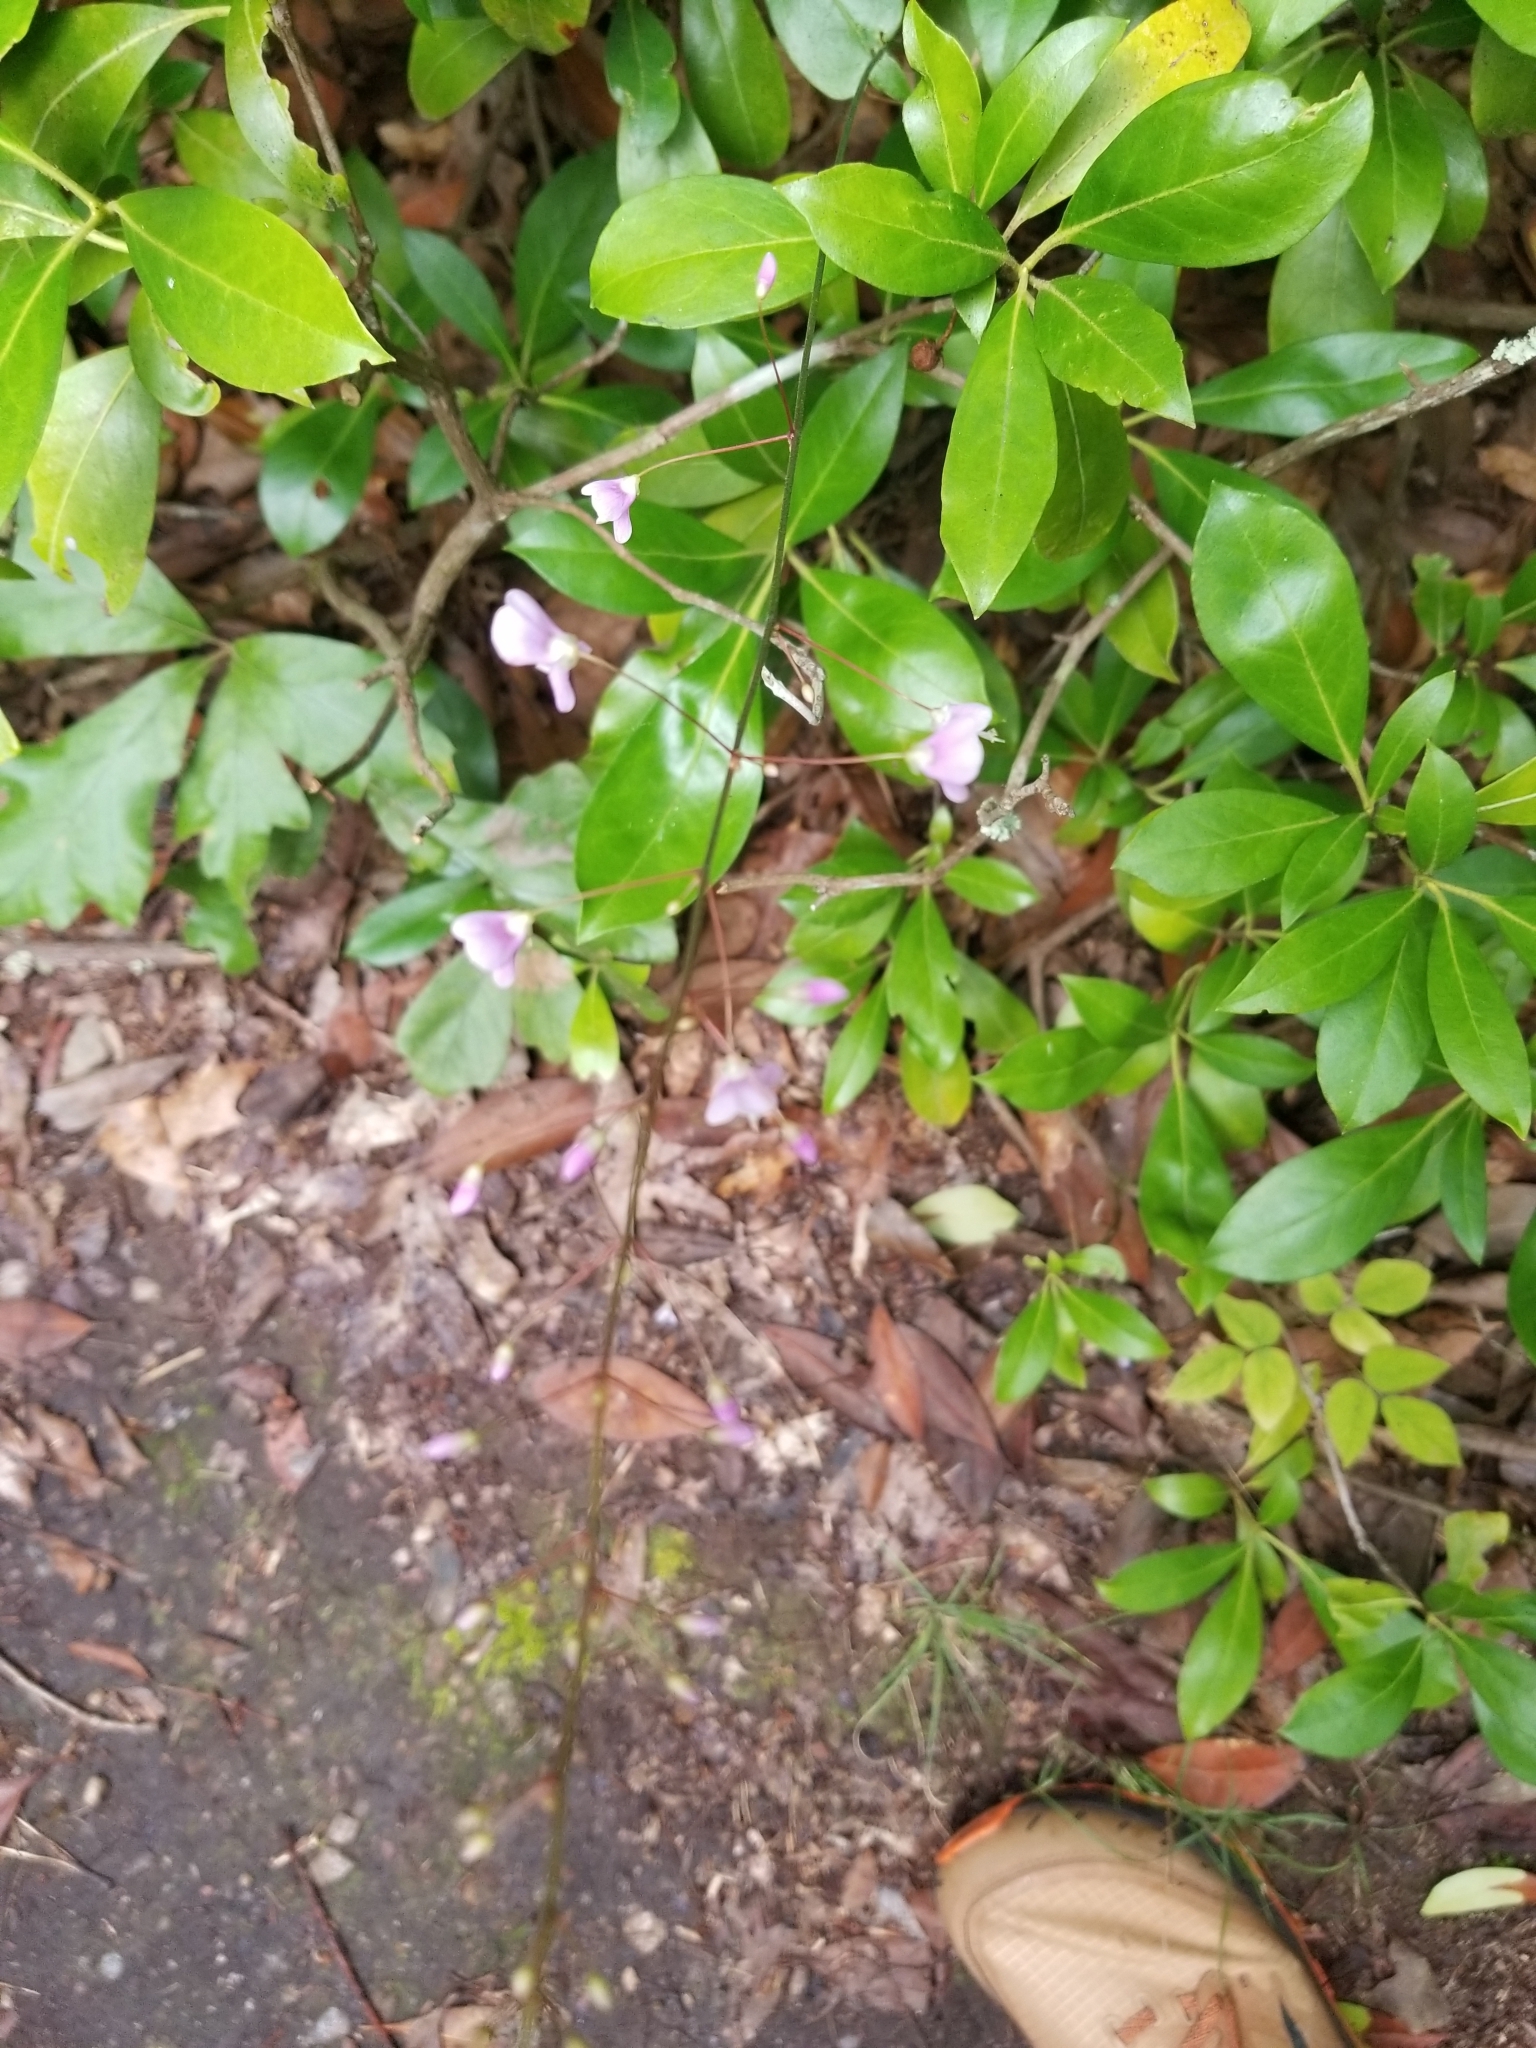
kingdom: Plantae
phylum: Tracheophyta
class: Magnoliopsida
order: Fabales
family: Fabaceae
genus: Hylodesmum
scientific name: Hylodesmum nudiflorum
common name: Bare-stemmed tick-trefoil
